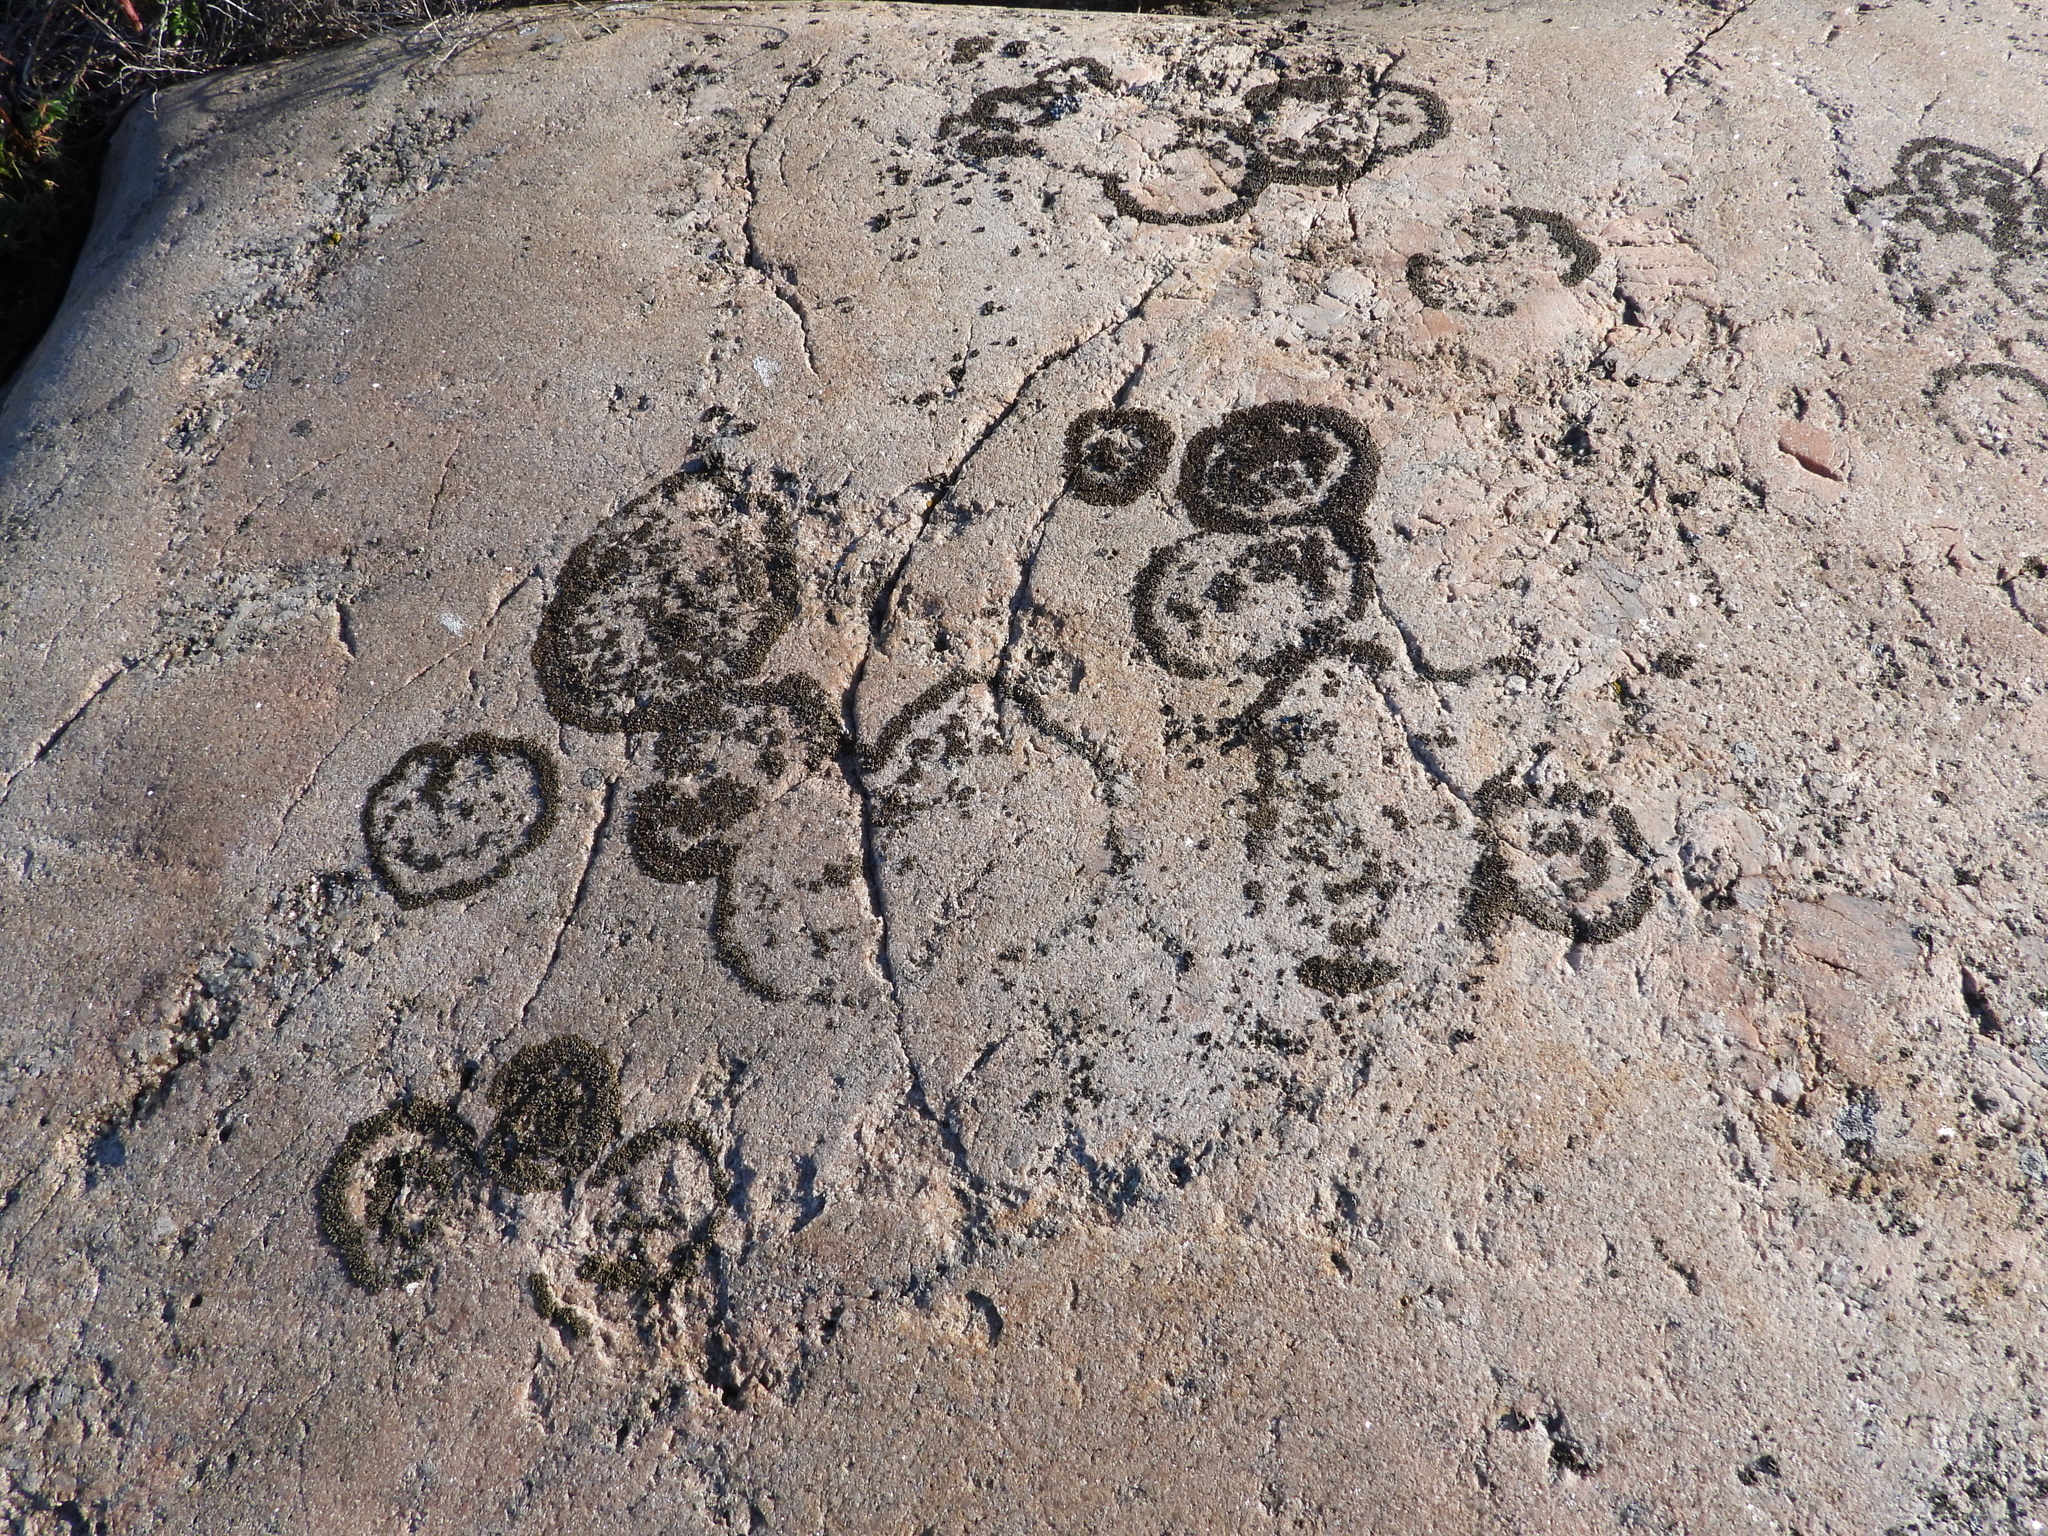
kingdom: Fungi
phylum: Ascomycota
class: Lecanoromycetes
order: Lecanorales
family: Parmeliaceae
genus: Xanthoparmelia
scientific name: Xanthoparmelia pulla
